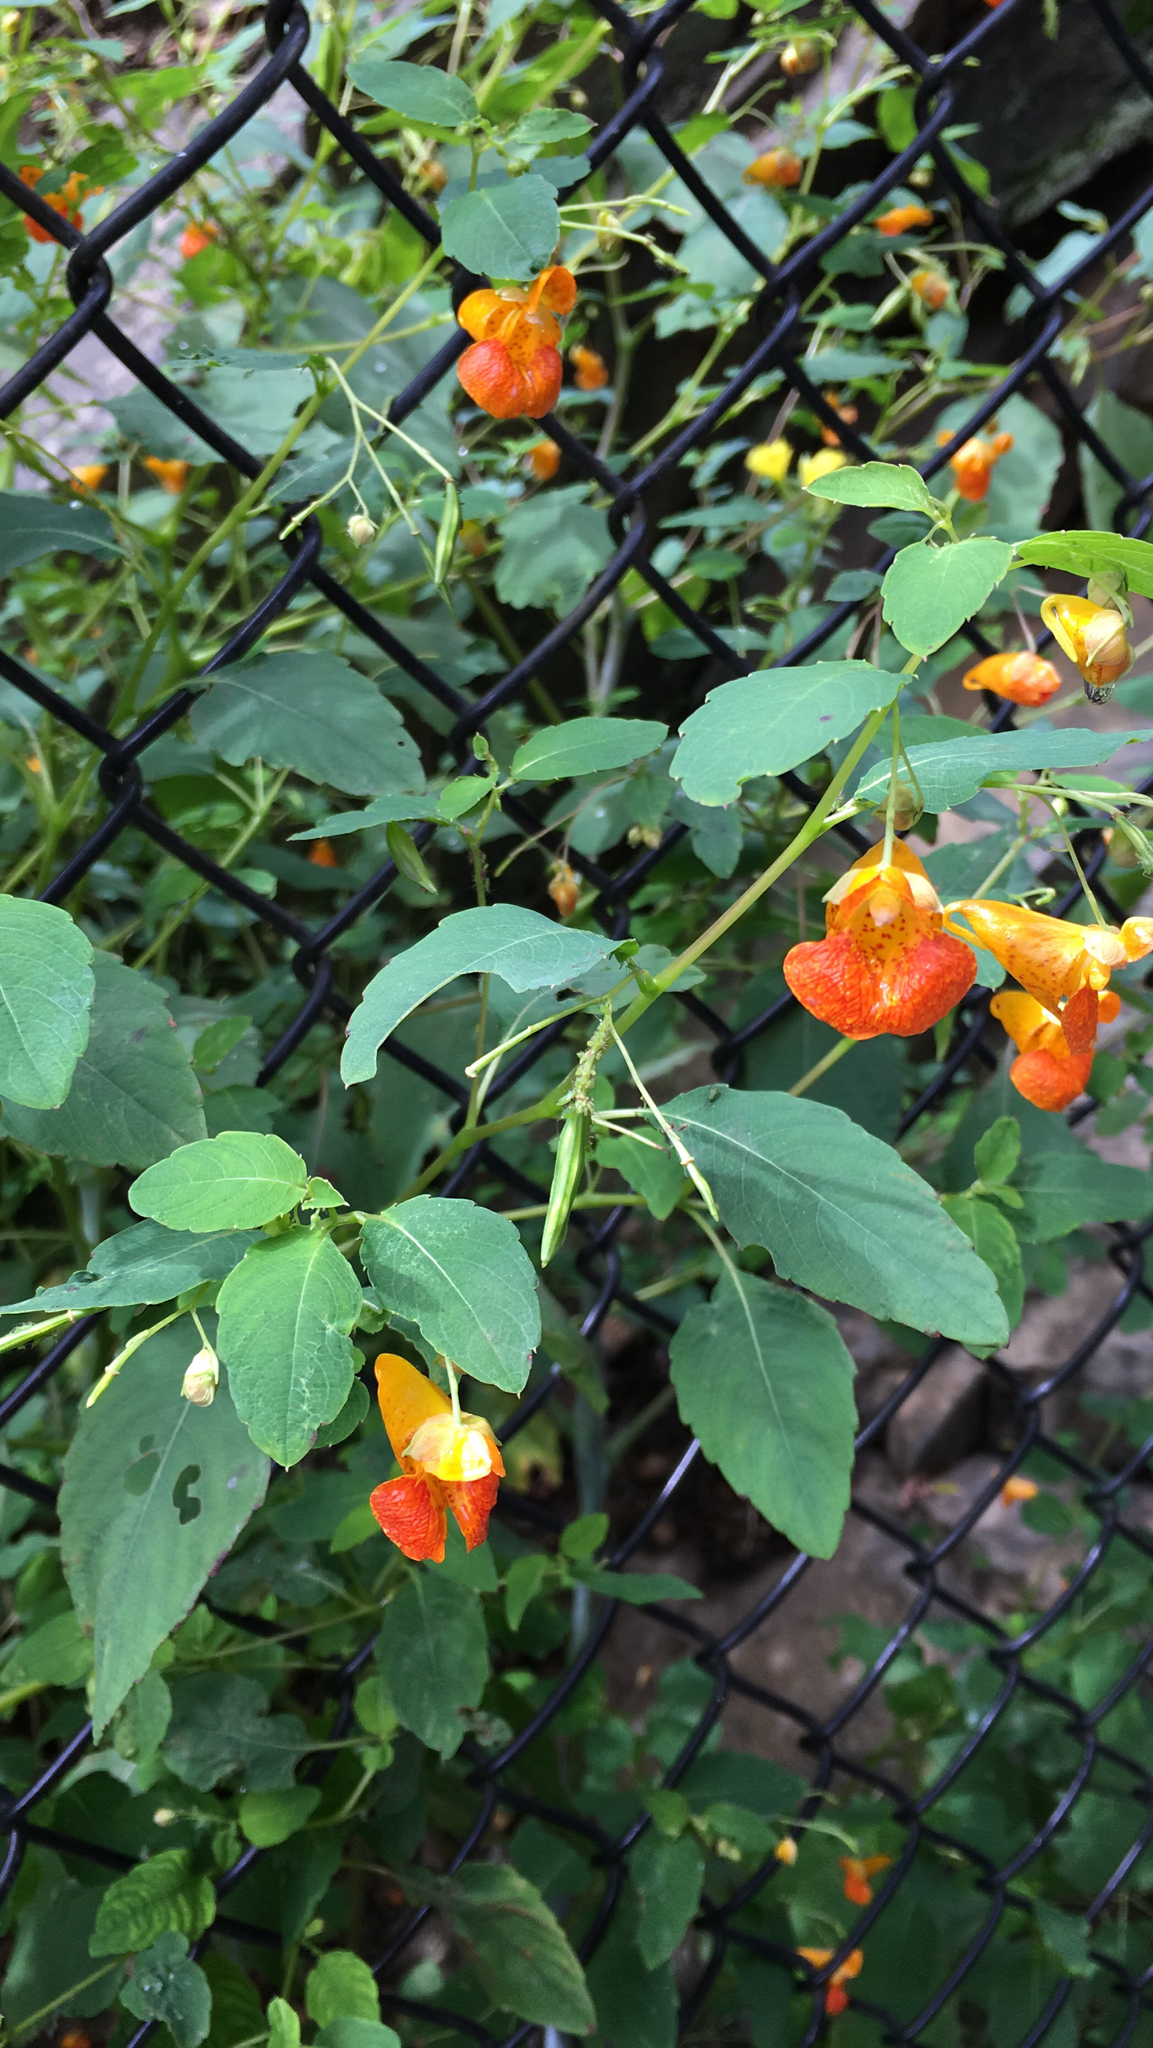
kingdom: Plantae
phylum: Tracheophyta
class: Magnoliopsida
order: Ericales
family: Balsaminaceae
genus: Impatiens
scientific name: Impatiens capensis
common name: Orange balsam
